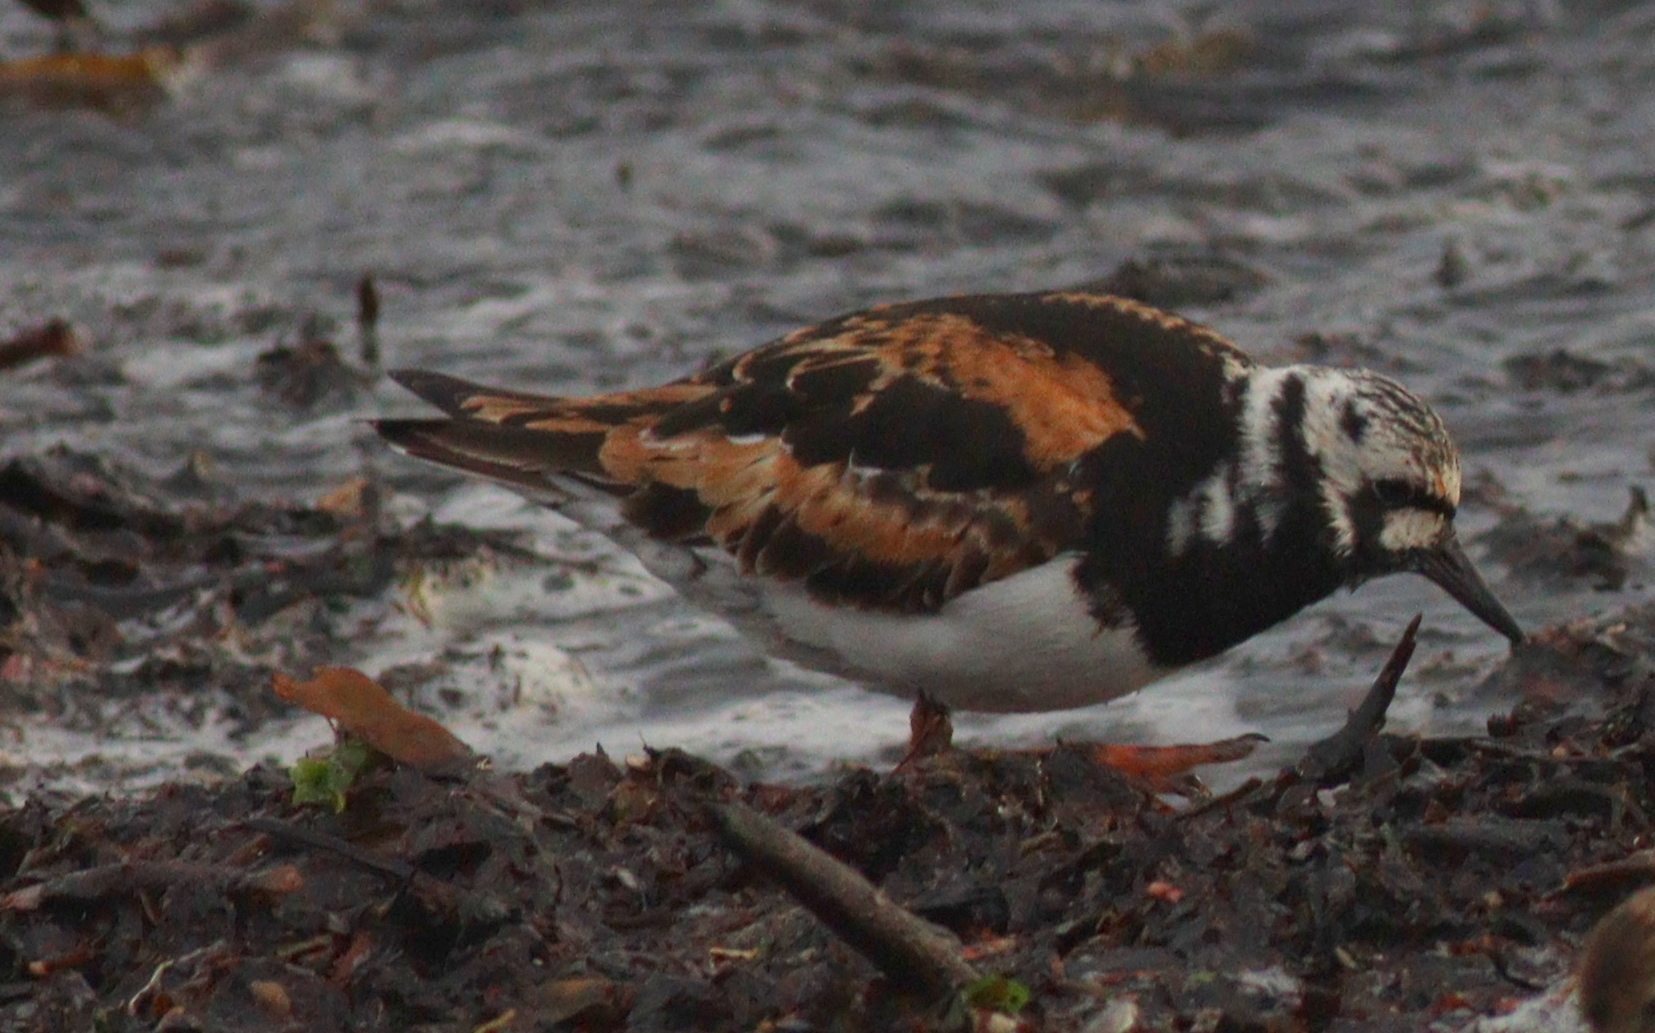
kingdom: Animalia
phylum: Chordata
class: Aves
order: Charadriiformes
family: Scolopacidae
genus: Arenaria
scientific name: Arenaria interpres
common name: Ruddy turnstone
